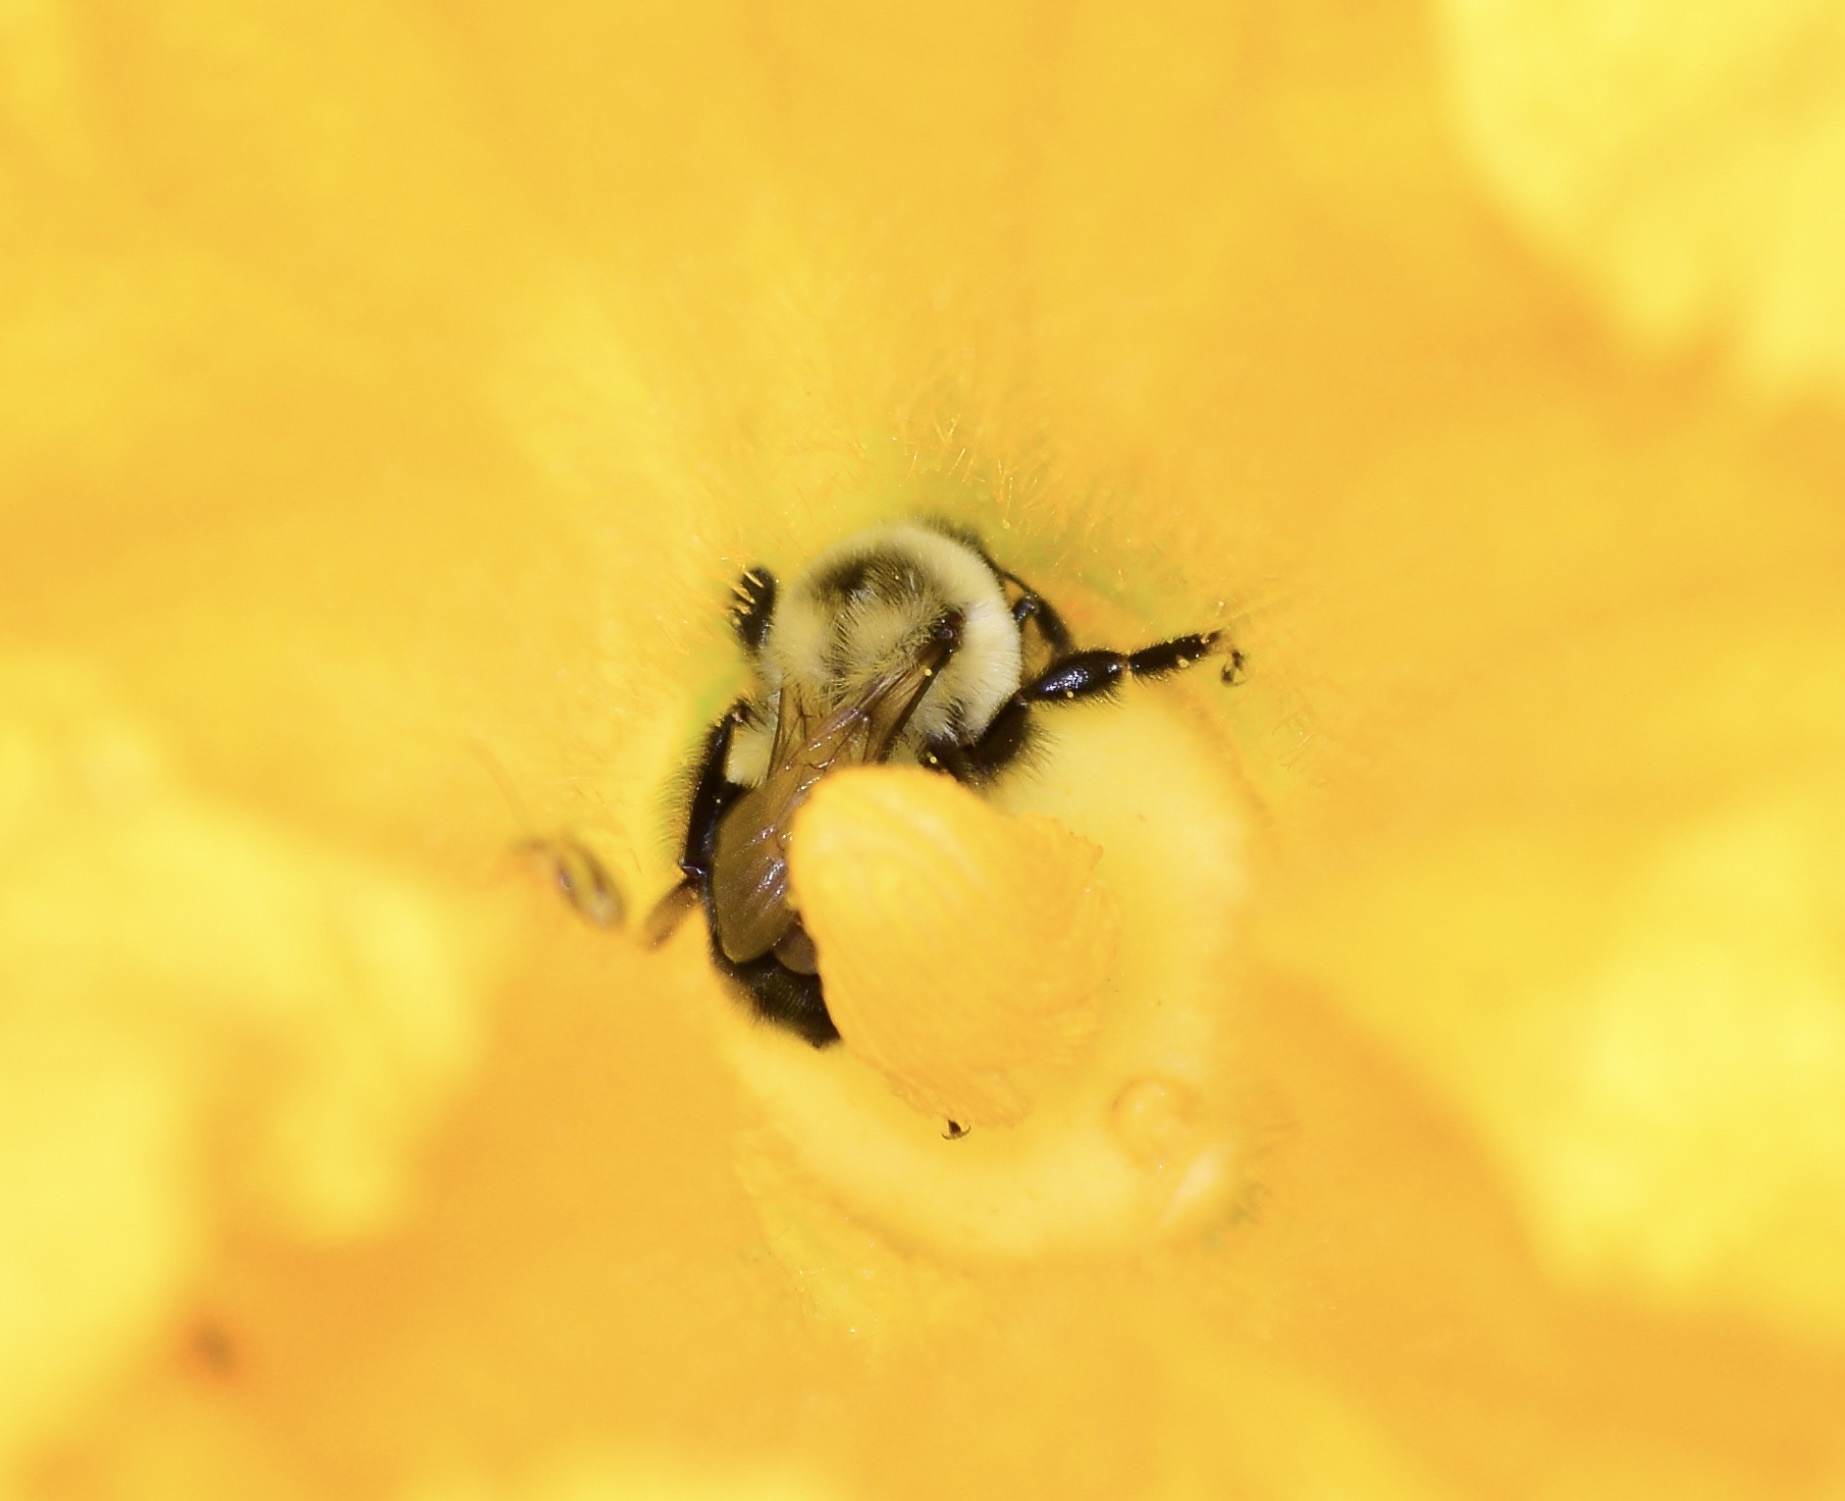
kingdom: Animalia
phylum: Arthropoda
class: Insecta
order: Hymenoptera
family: Apidae
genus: Bombus
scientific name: Bombus impatiens
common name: Common eastern bumble bee
